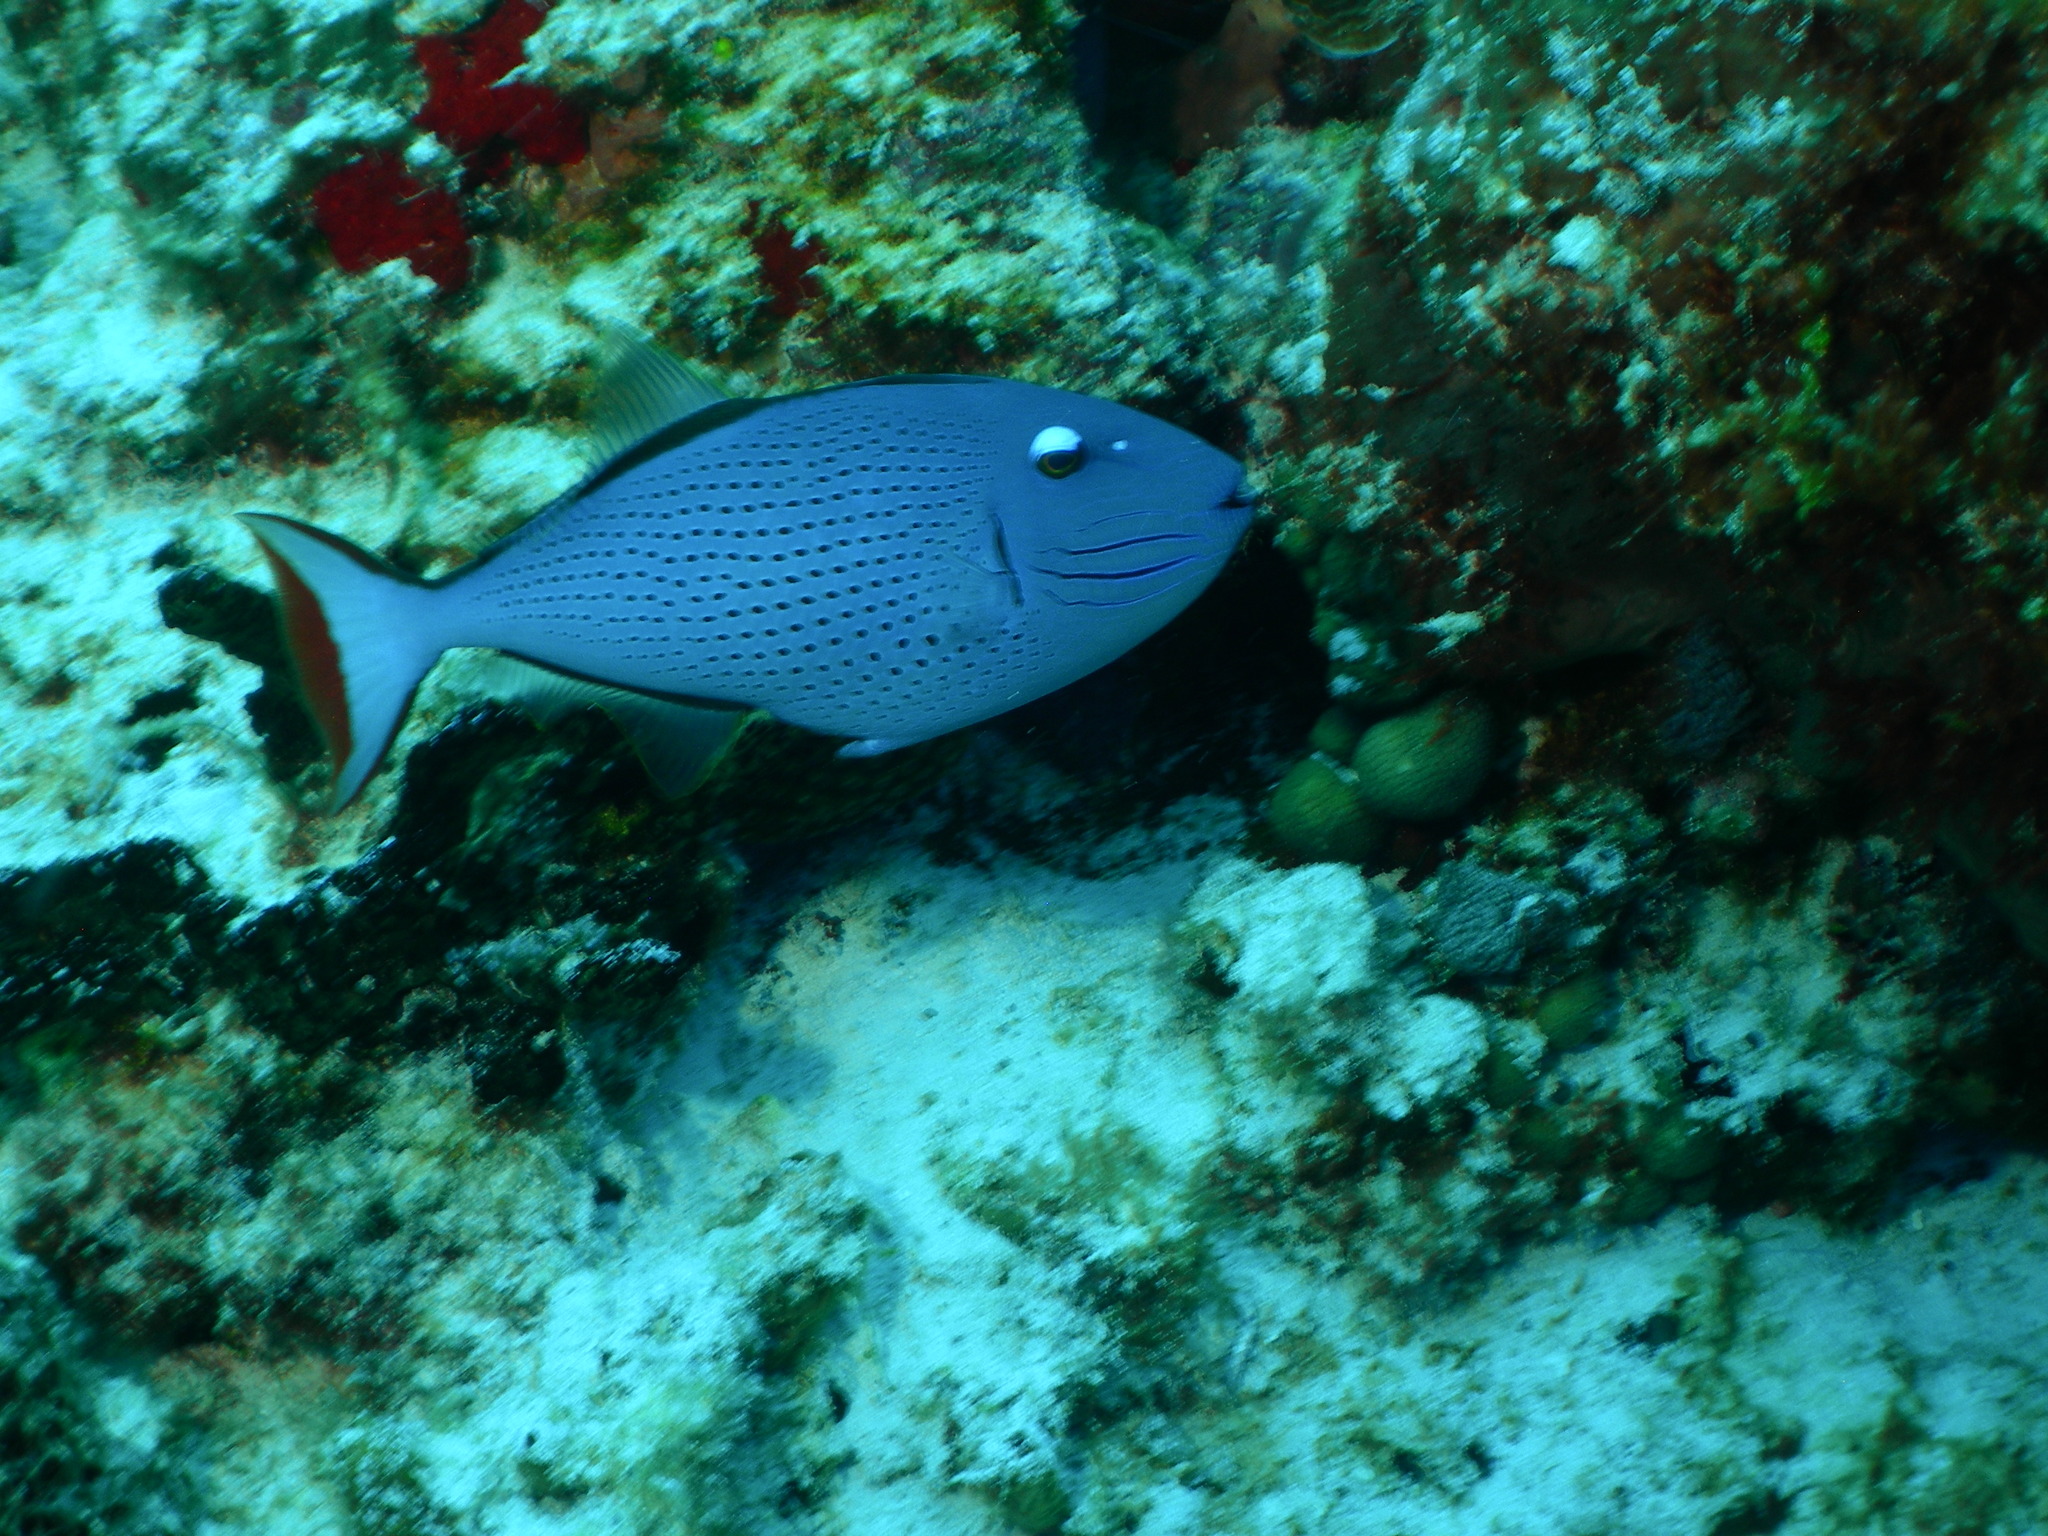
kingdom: Animalia
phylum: Chordata
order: Tetraodontiformes
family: Balistidae
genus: Xanthichthys
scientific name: Xanthichthys ringens
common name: Sargassum triggerfish
